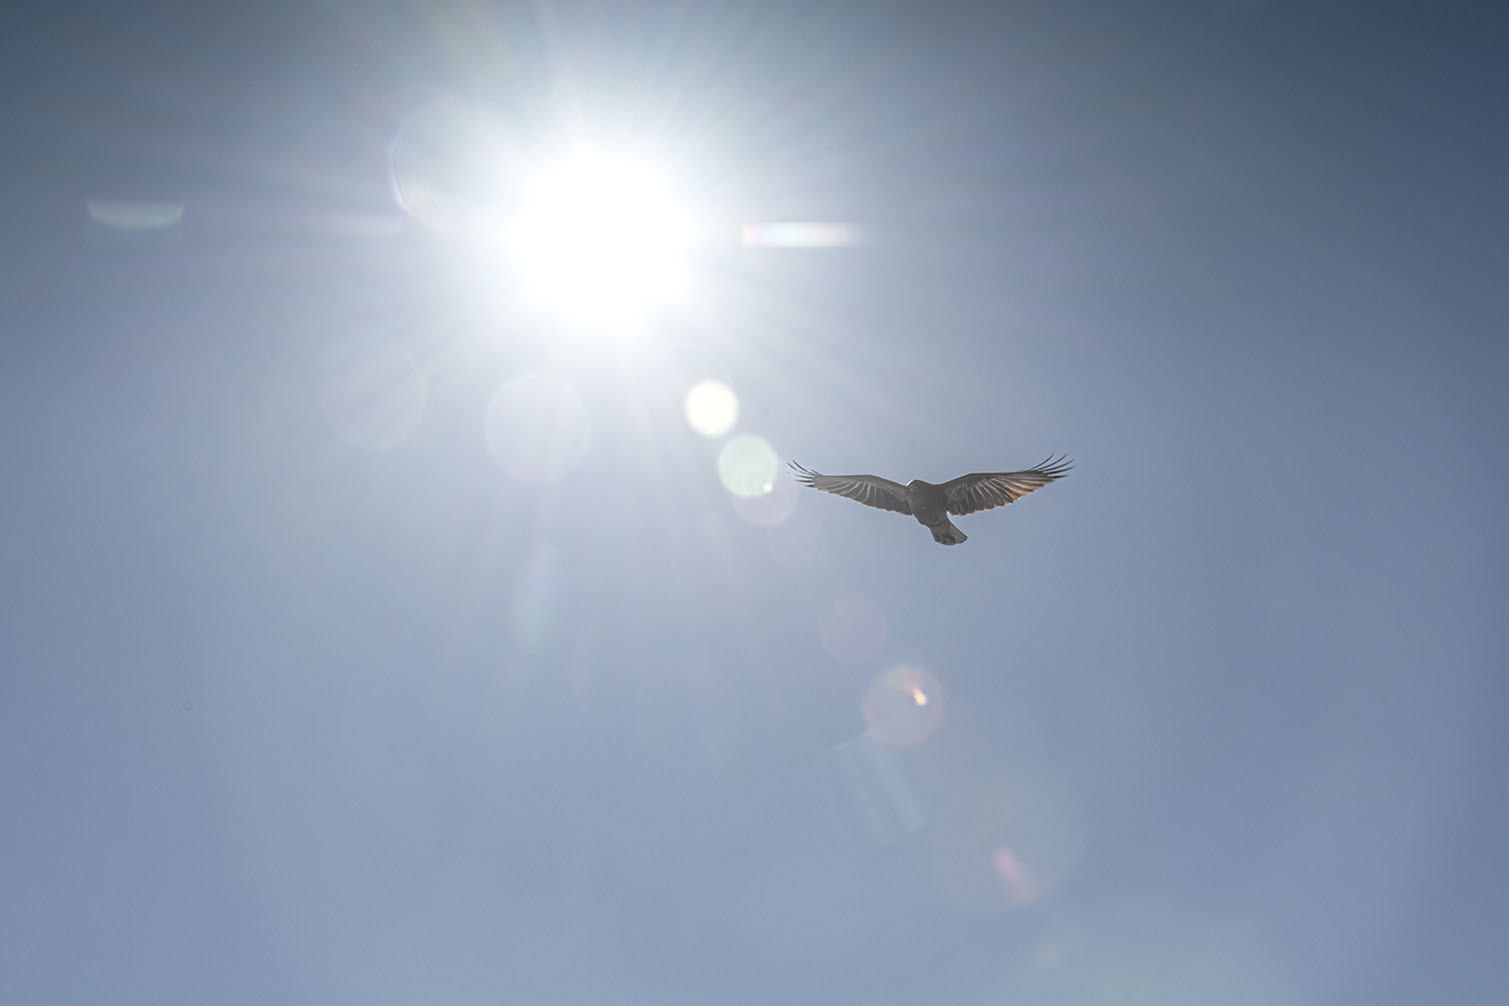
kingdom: Animalia
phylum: Chordata
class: Aves
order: Passeriformes
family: Corvidae
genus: Corvus
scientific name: Corvus
